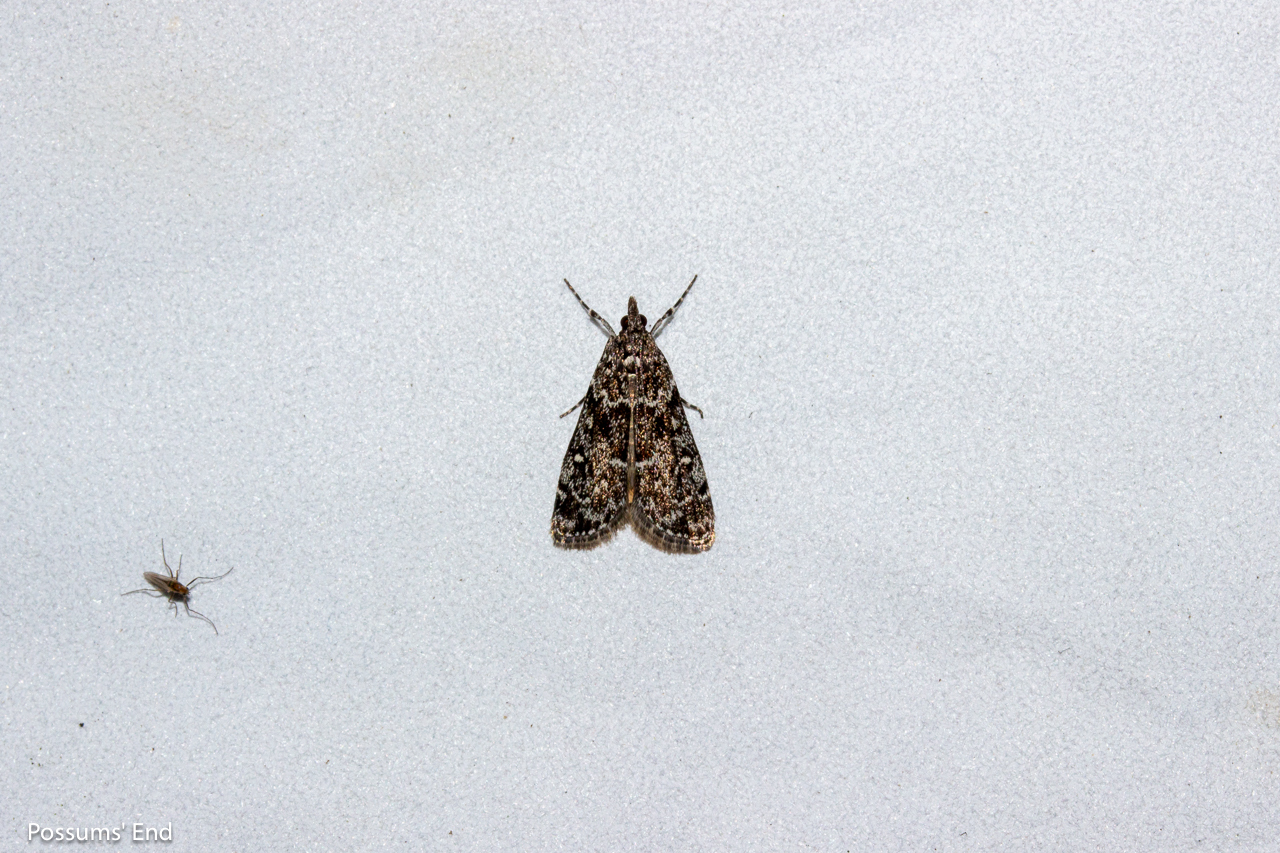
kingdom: Animalia
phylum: Arthropoda
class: Insecta
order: Lepidoptera
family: Crambidae
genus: Eudonia
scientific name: Eudonia philerga
